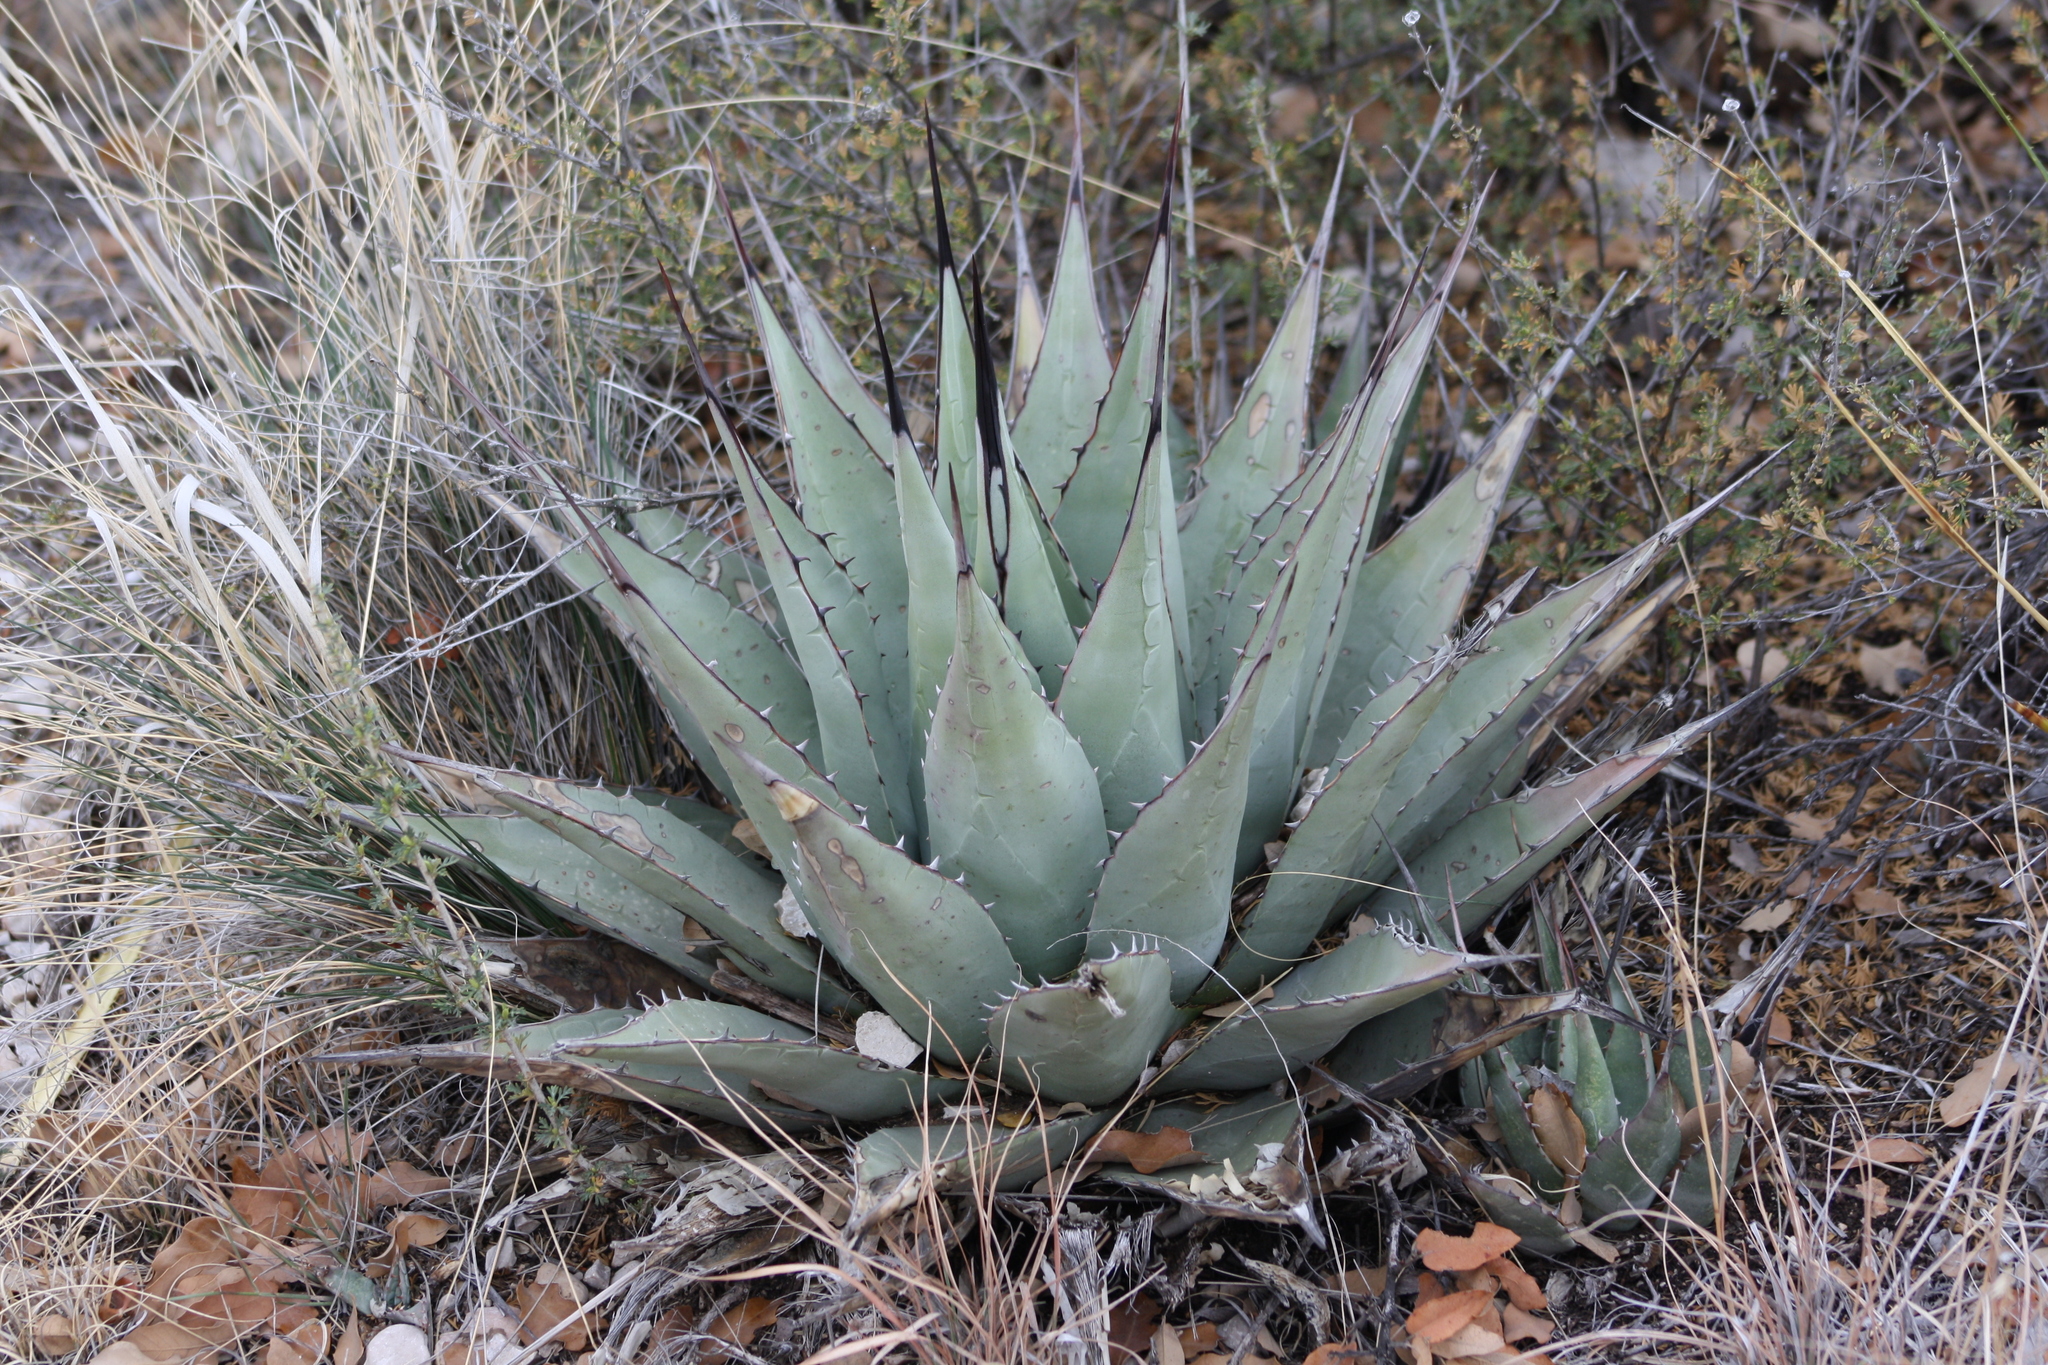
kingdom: Plantae
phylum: Tracheophyta
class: Liliopsida
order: Asparagales
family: Asparagaceae
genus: Agave
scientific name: Agave parryi
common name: Parry's agave
